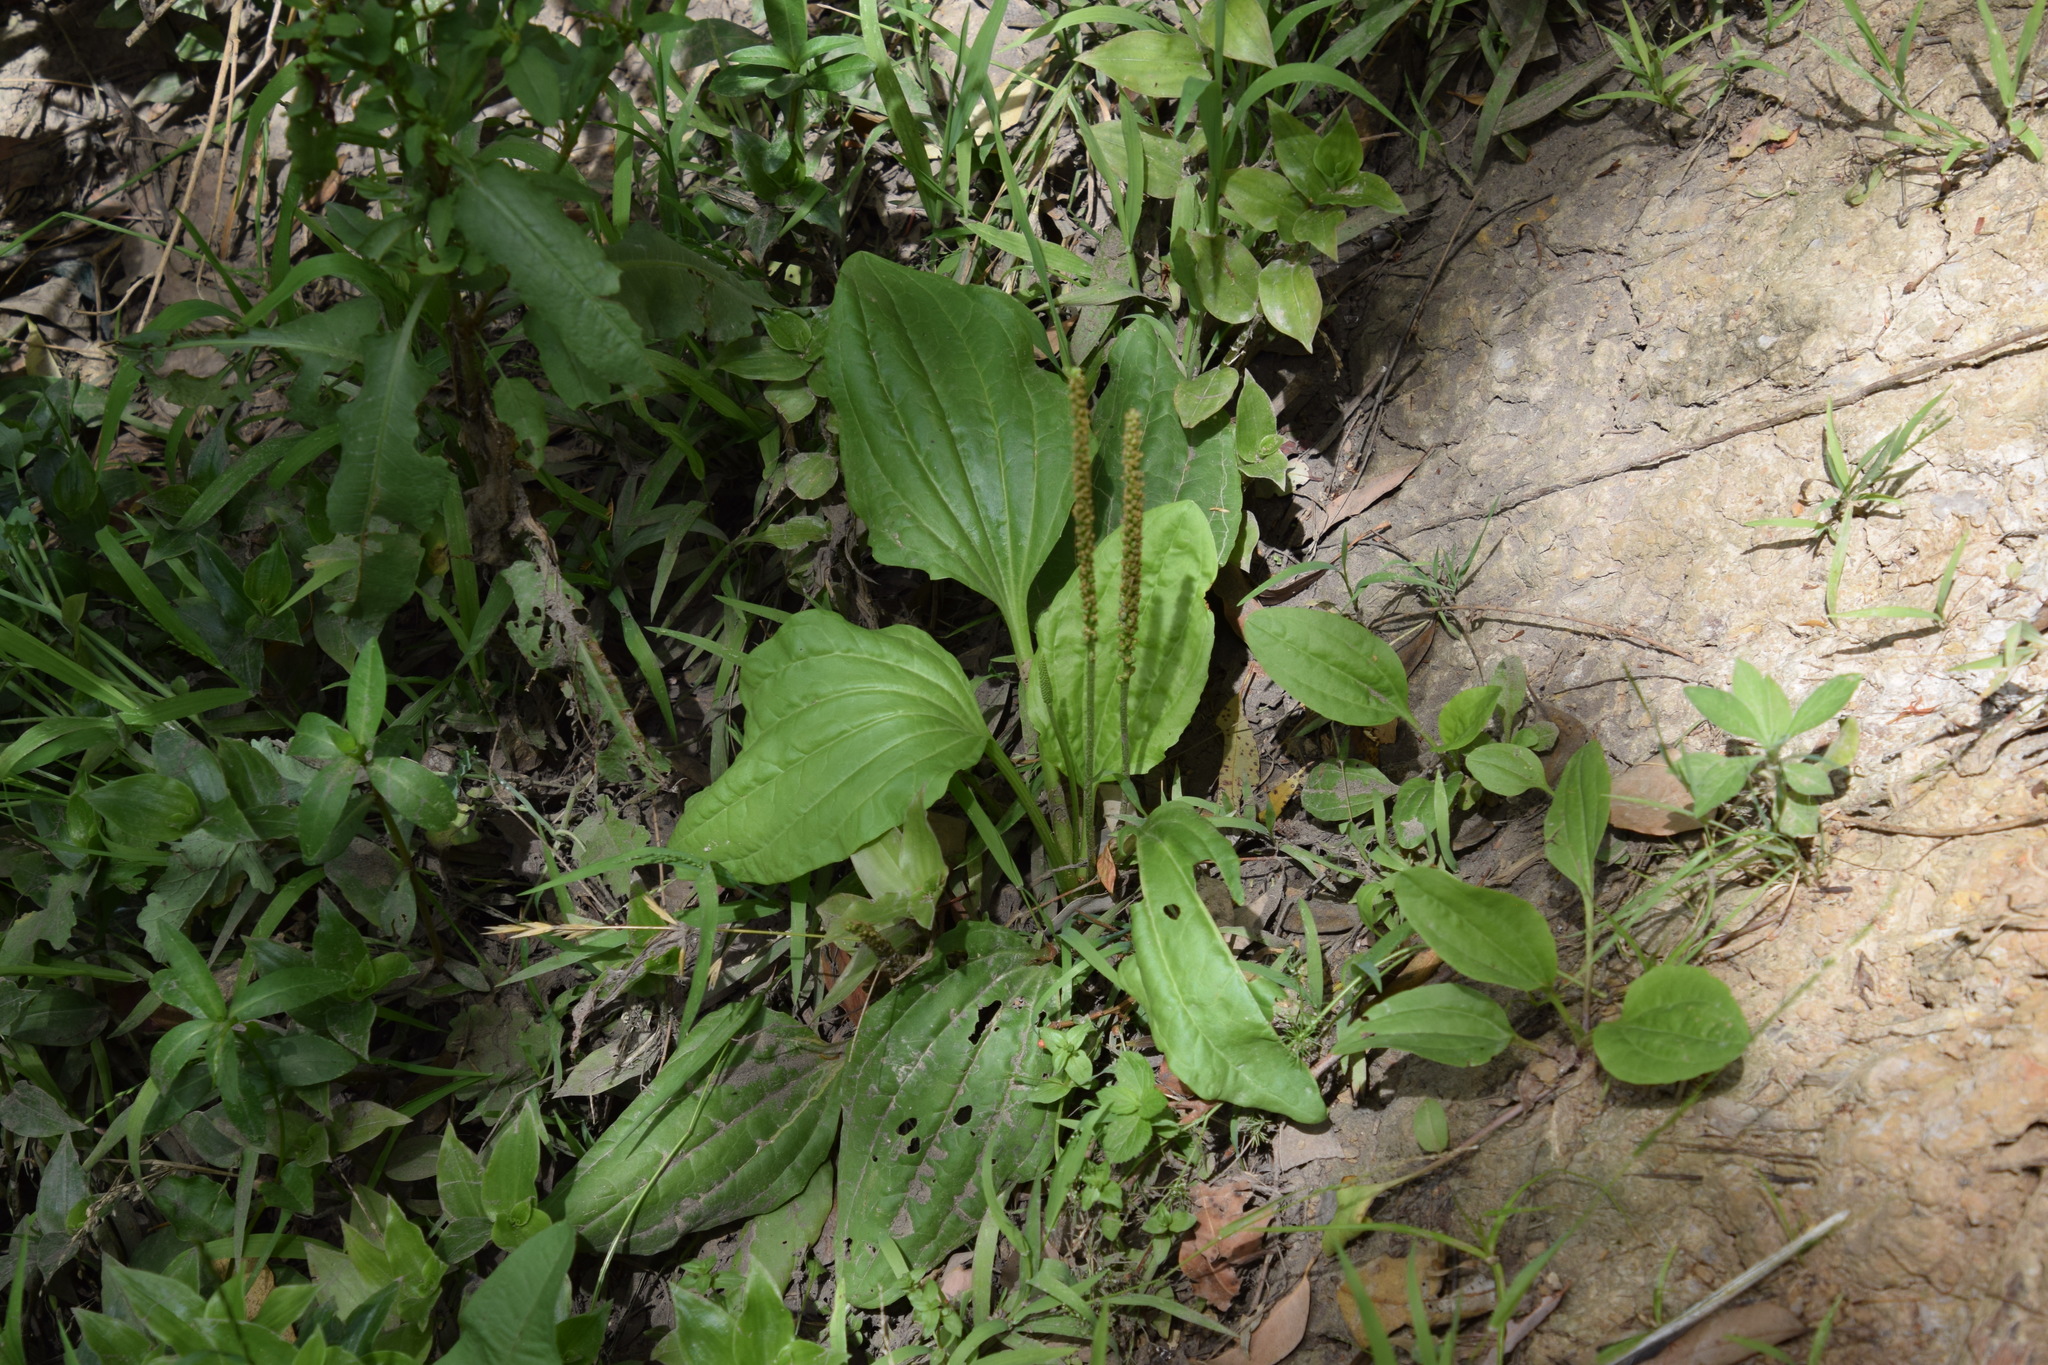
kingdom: Plantae
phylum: Tracheophyta
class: Magnoliopsida
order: Lamiales
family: Plantaginaceae
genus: Plantago
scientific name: Plantago major
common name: Common plantain
